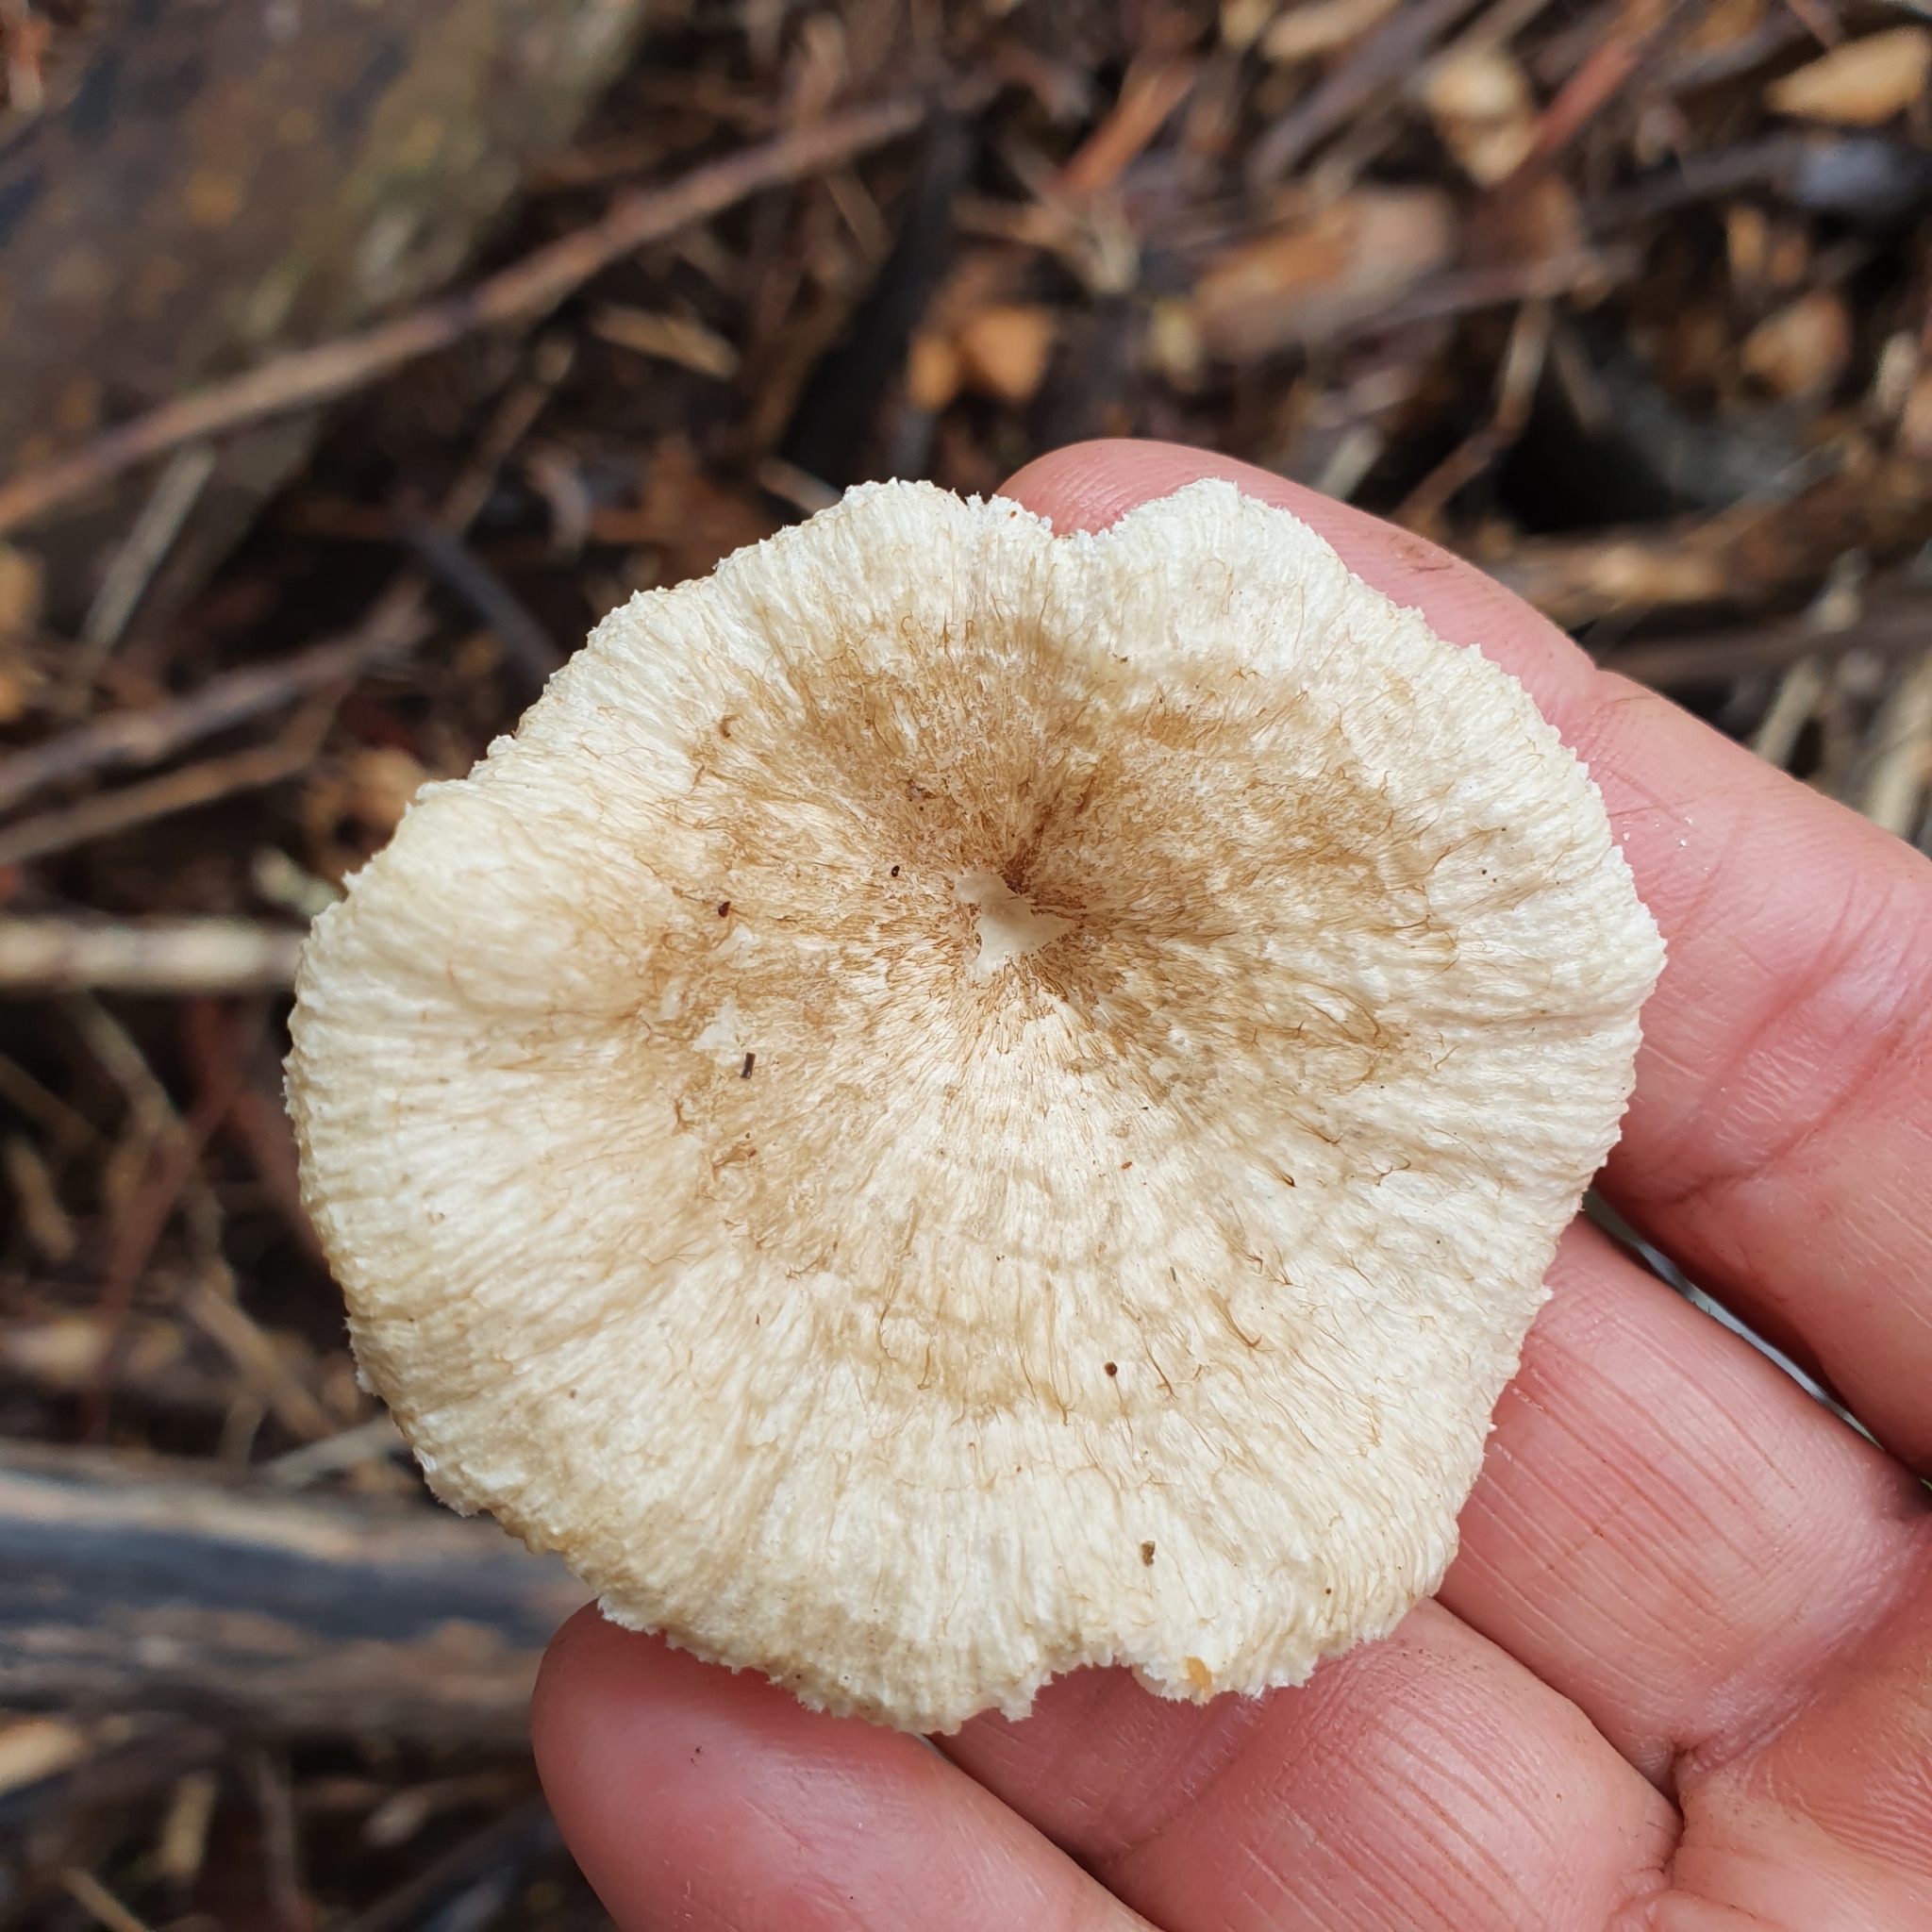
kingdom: Fungi
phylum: Basidiomycota
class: Agaricomycetes
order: Polyporales
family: Polyporaceae
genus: Lentinus
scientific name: Lentinus concinnus
